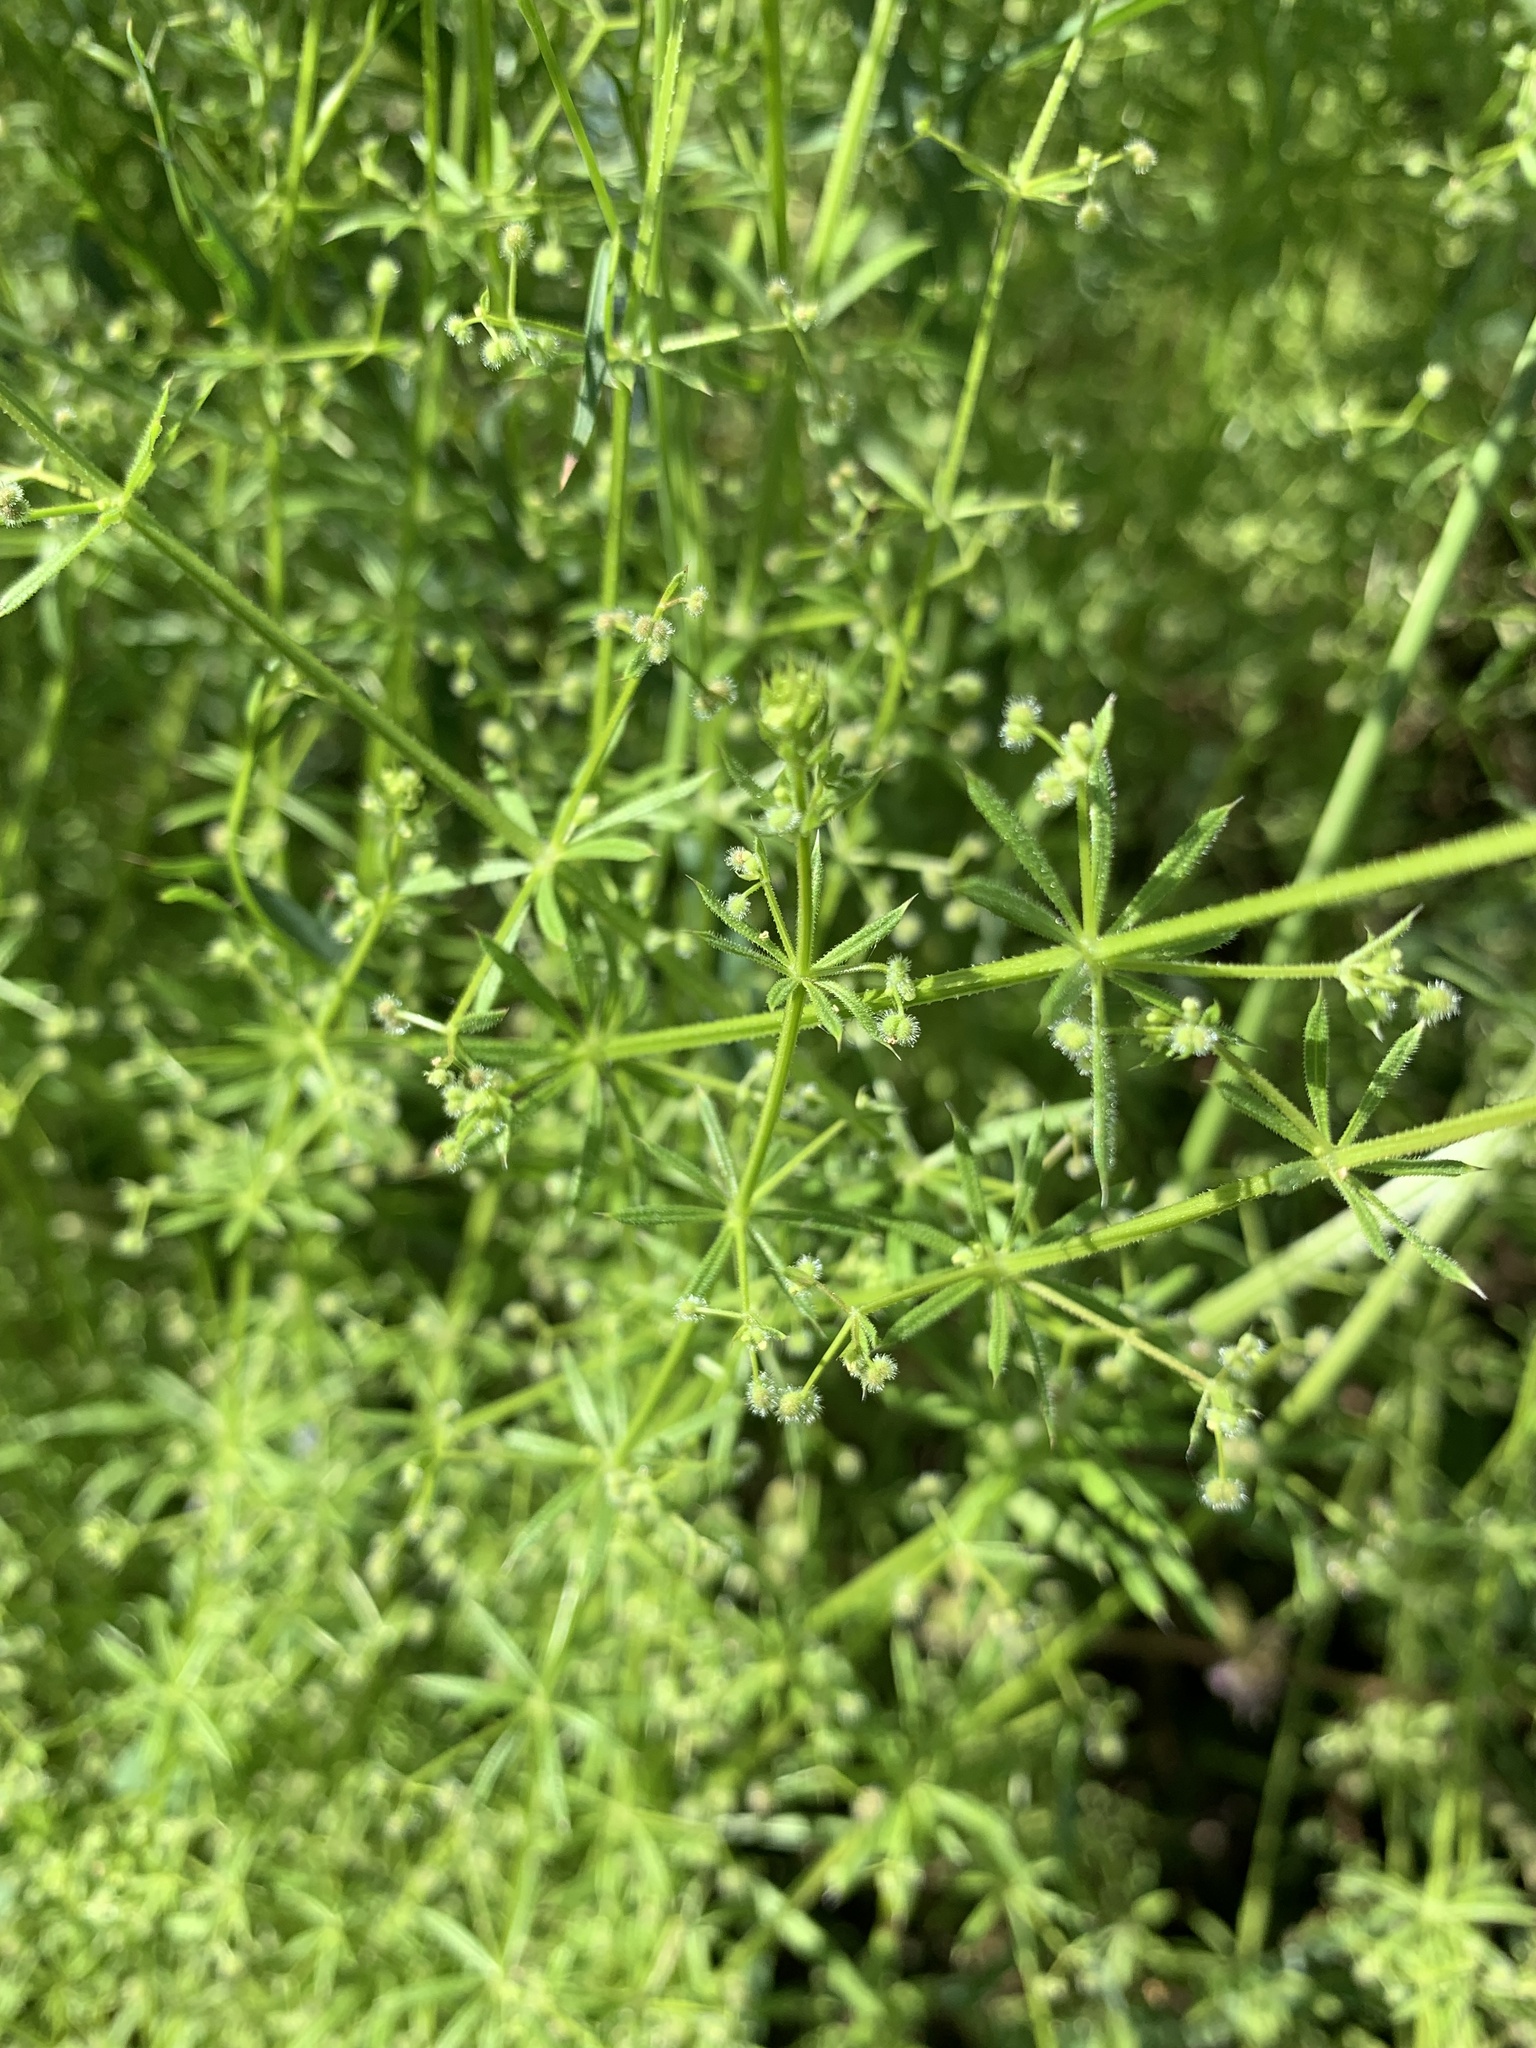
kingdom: Plantae
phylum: Tracheophyta
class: Magnoliopsida
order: Gentianales
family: Rubiaceae
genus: Galium
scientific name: Galium aparine
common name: Cleavers
